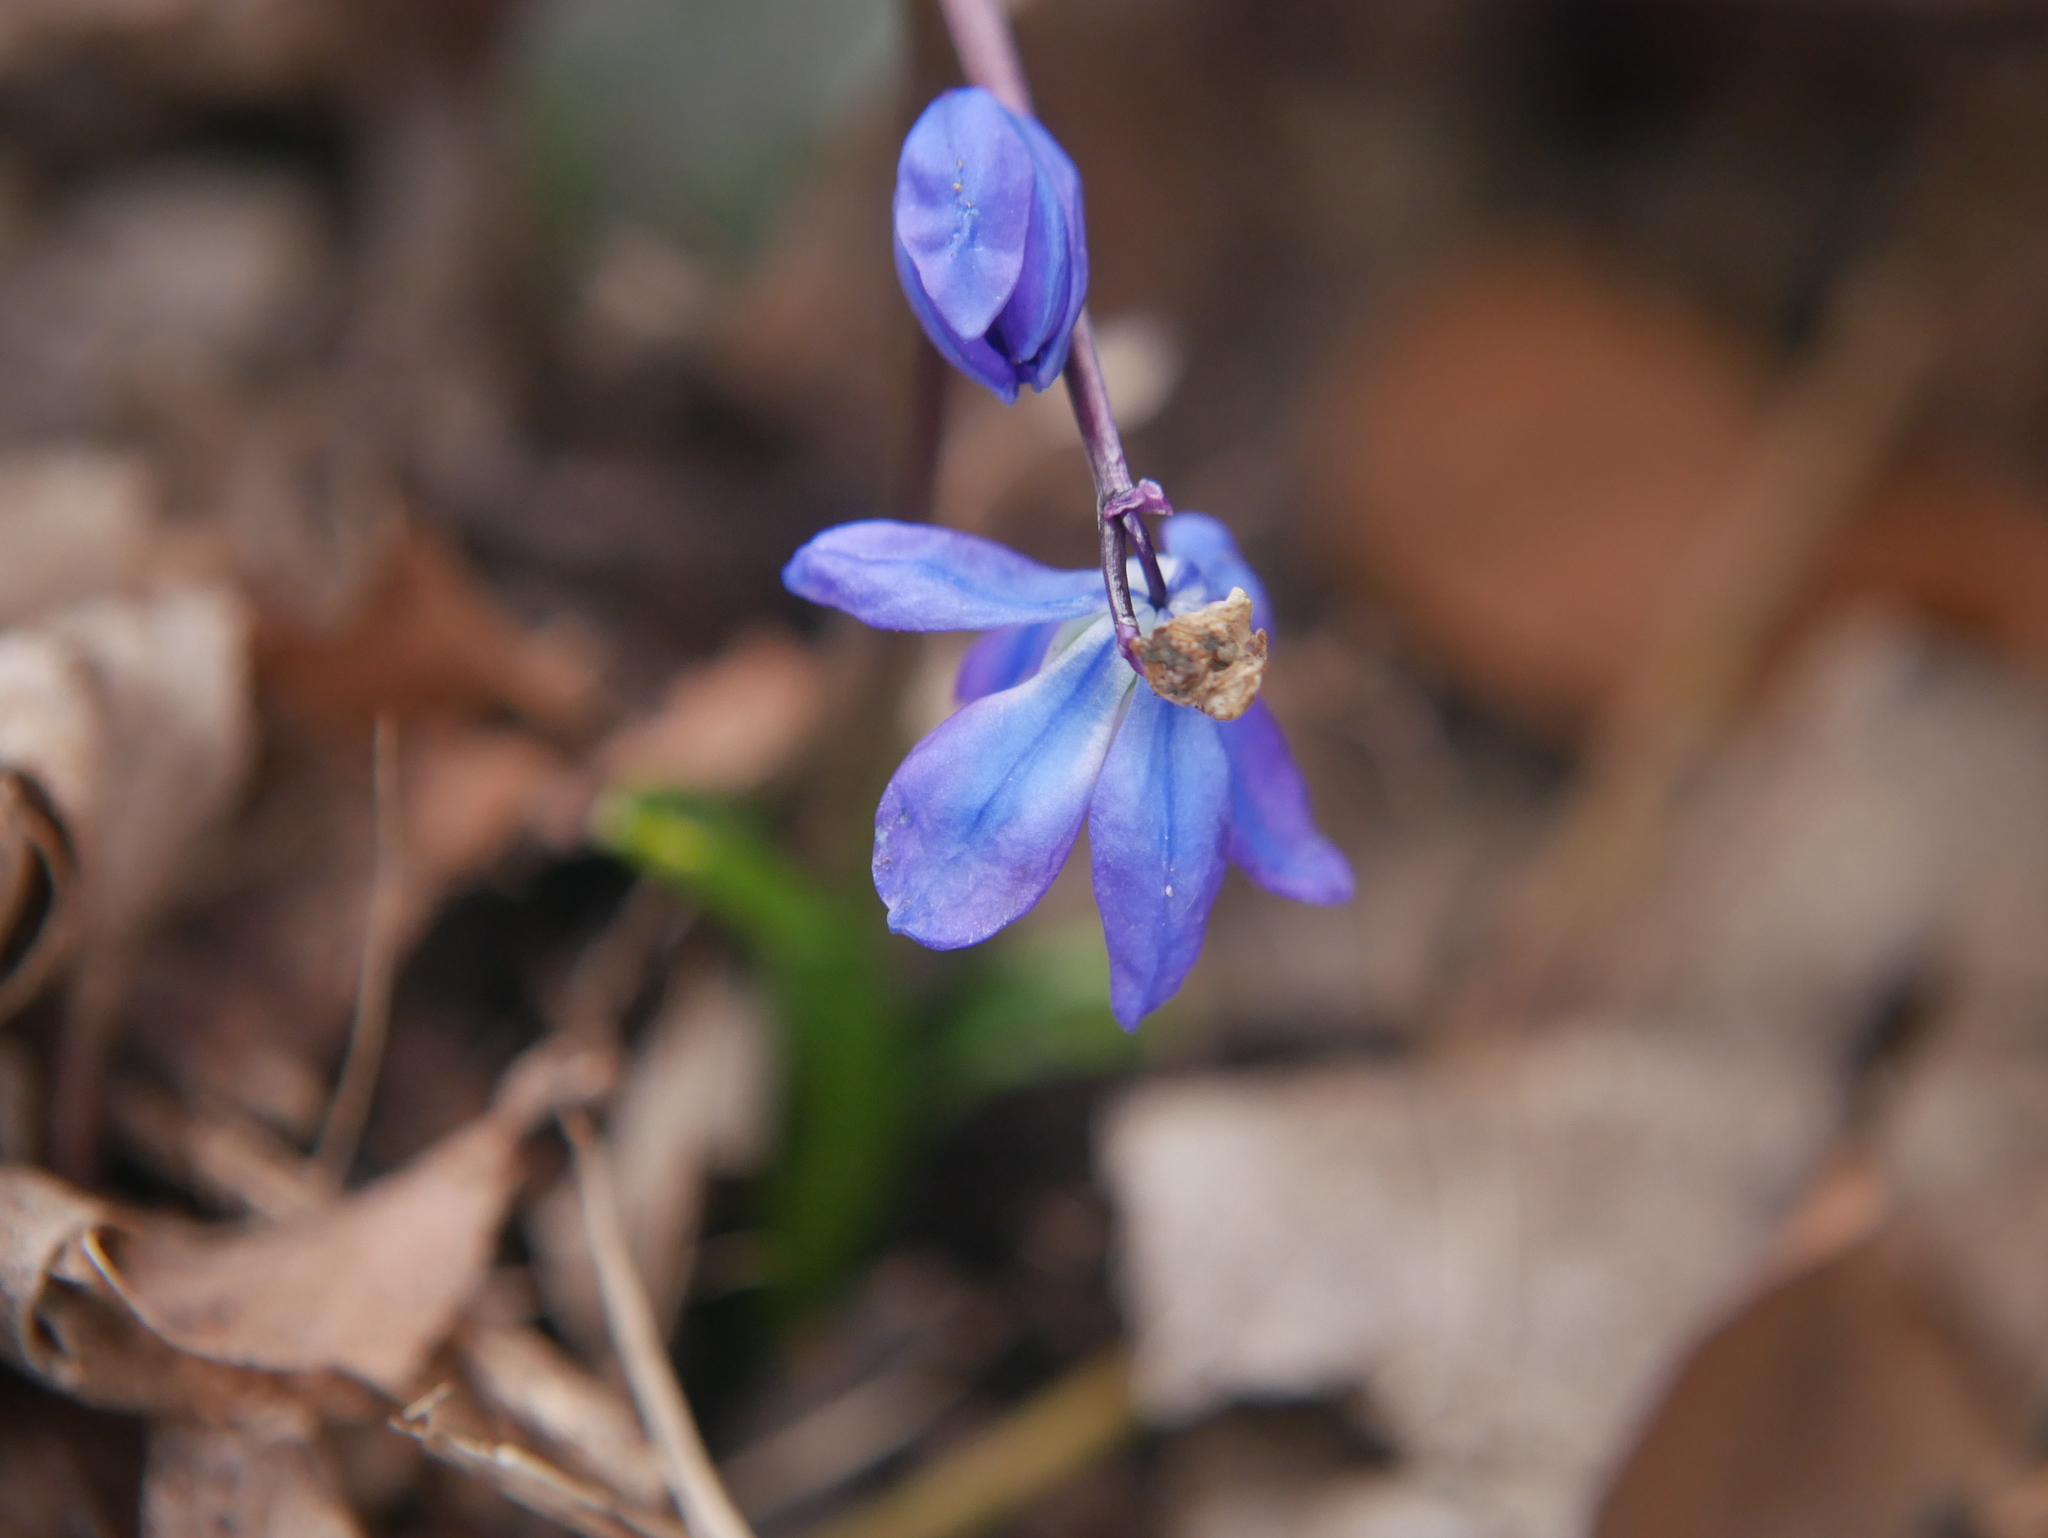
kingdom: Plantae
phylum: Tracheophyta
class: Liliopsida
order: Asparagales
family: Asparagaceae
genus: Scilla
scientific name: Scilla siberica
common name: Siberian squill
